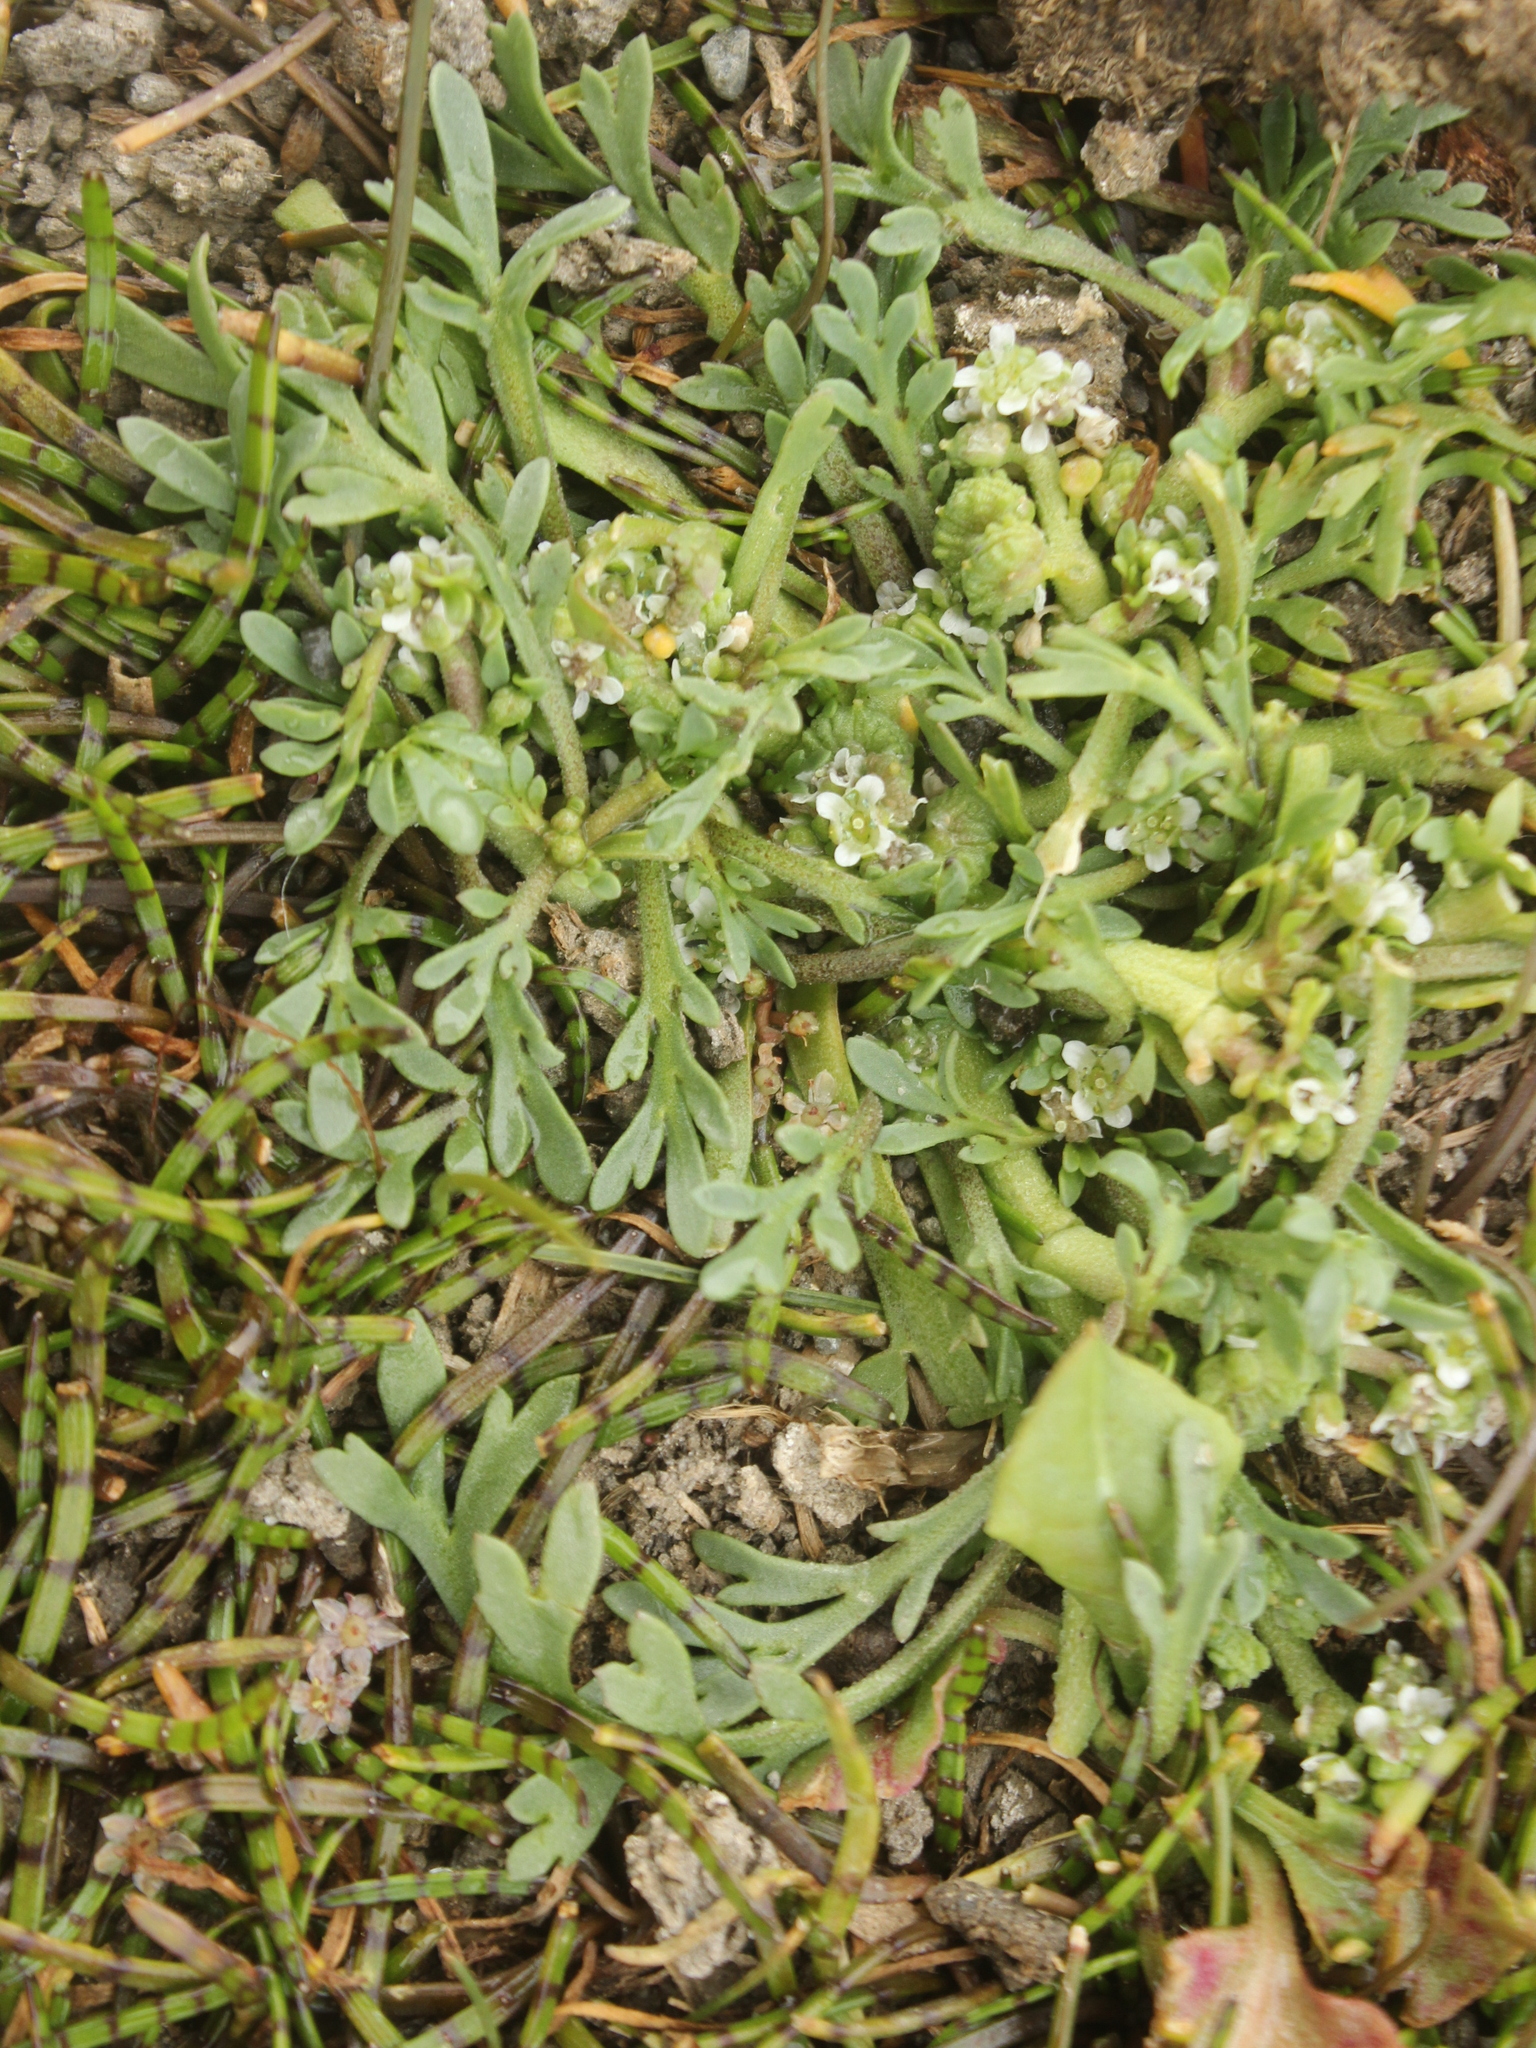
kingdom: Plantae
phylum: Tracheophyta
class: Magnoliopsida
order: Brassicales
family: Brassicaceae
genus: Lepidium
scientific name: Lepidium coronopus
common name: Greater swinecress
